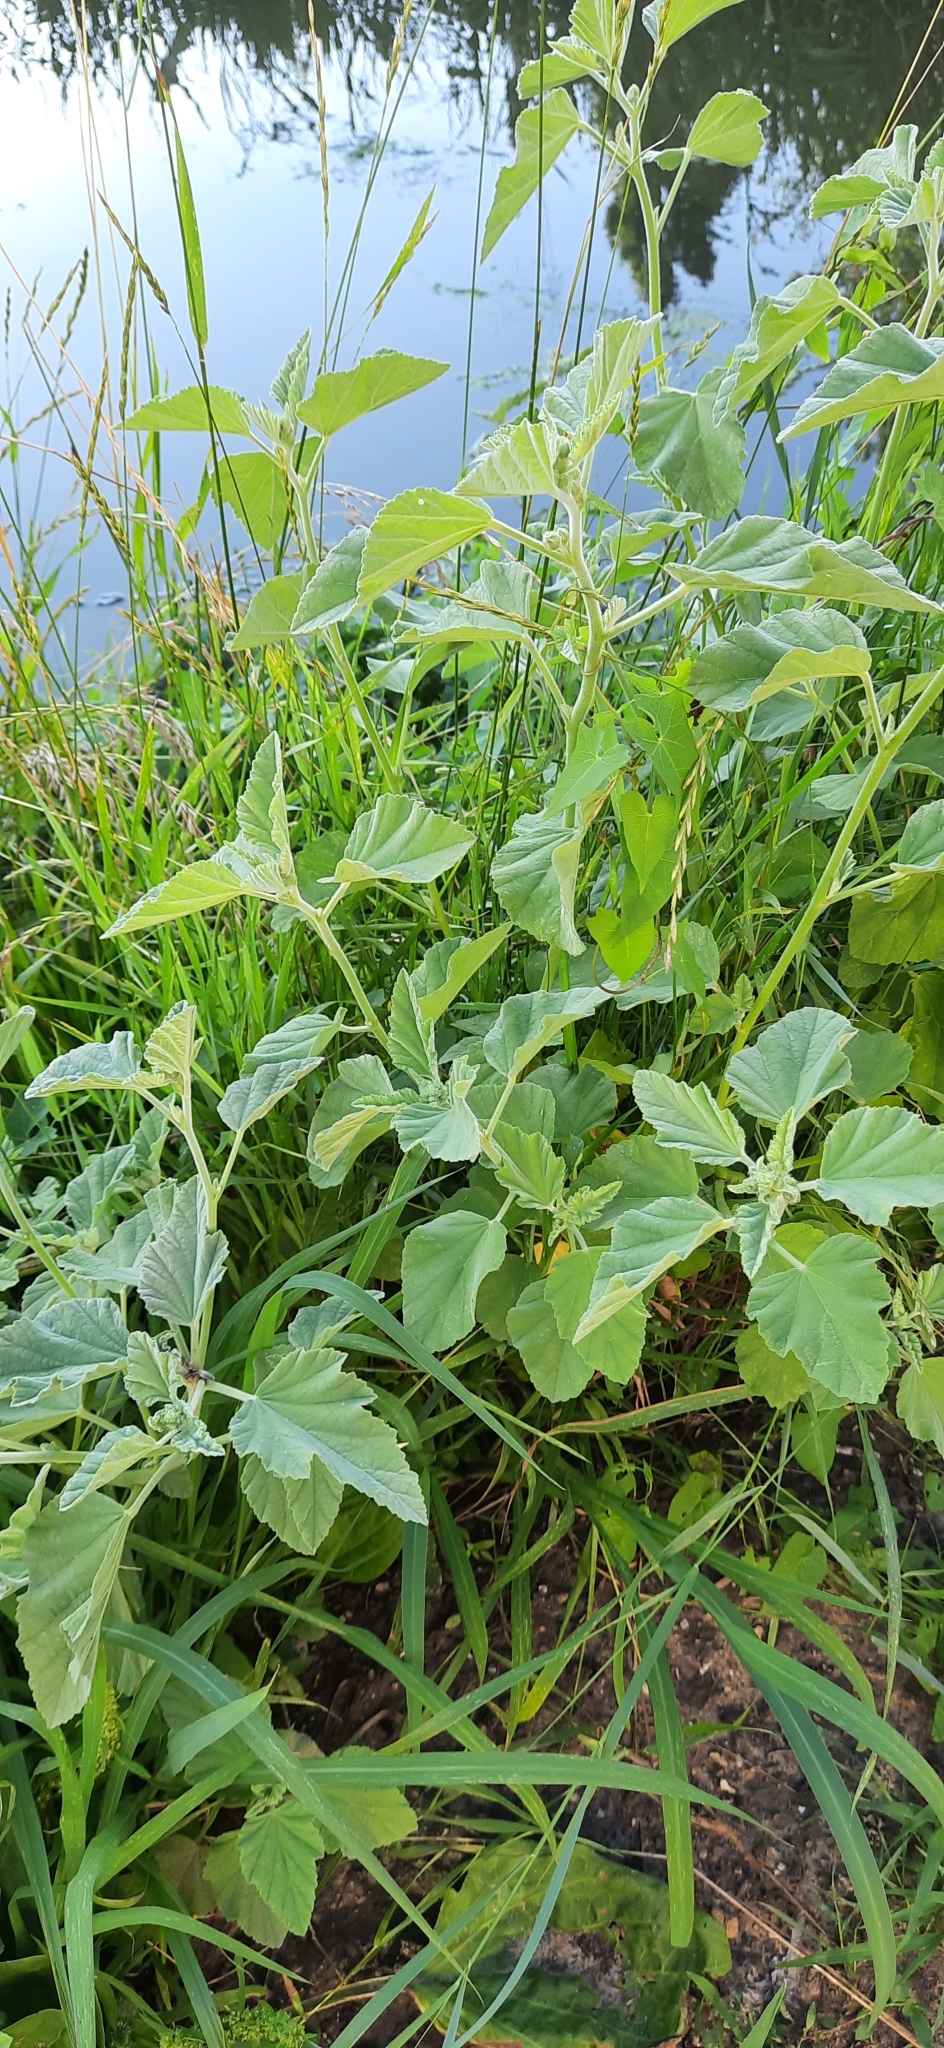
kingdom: Plantae
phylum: Tracheophyta
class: Magnoliopsida
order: Malvales
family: Malvaceae
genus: Althaea
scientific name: Althaea officinalis
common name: Marsh-mallow
